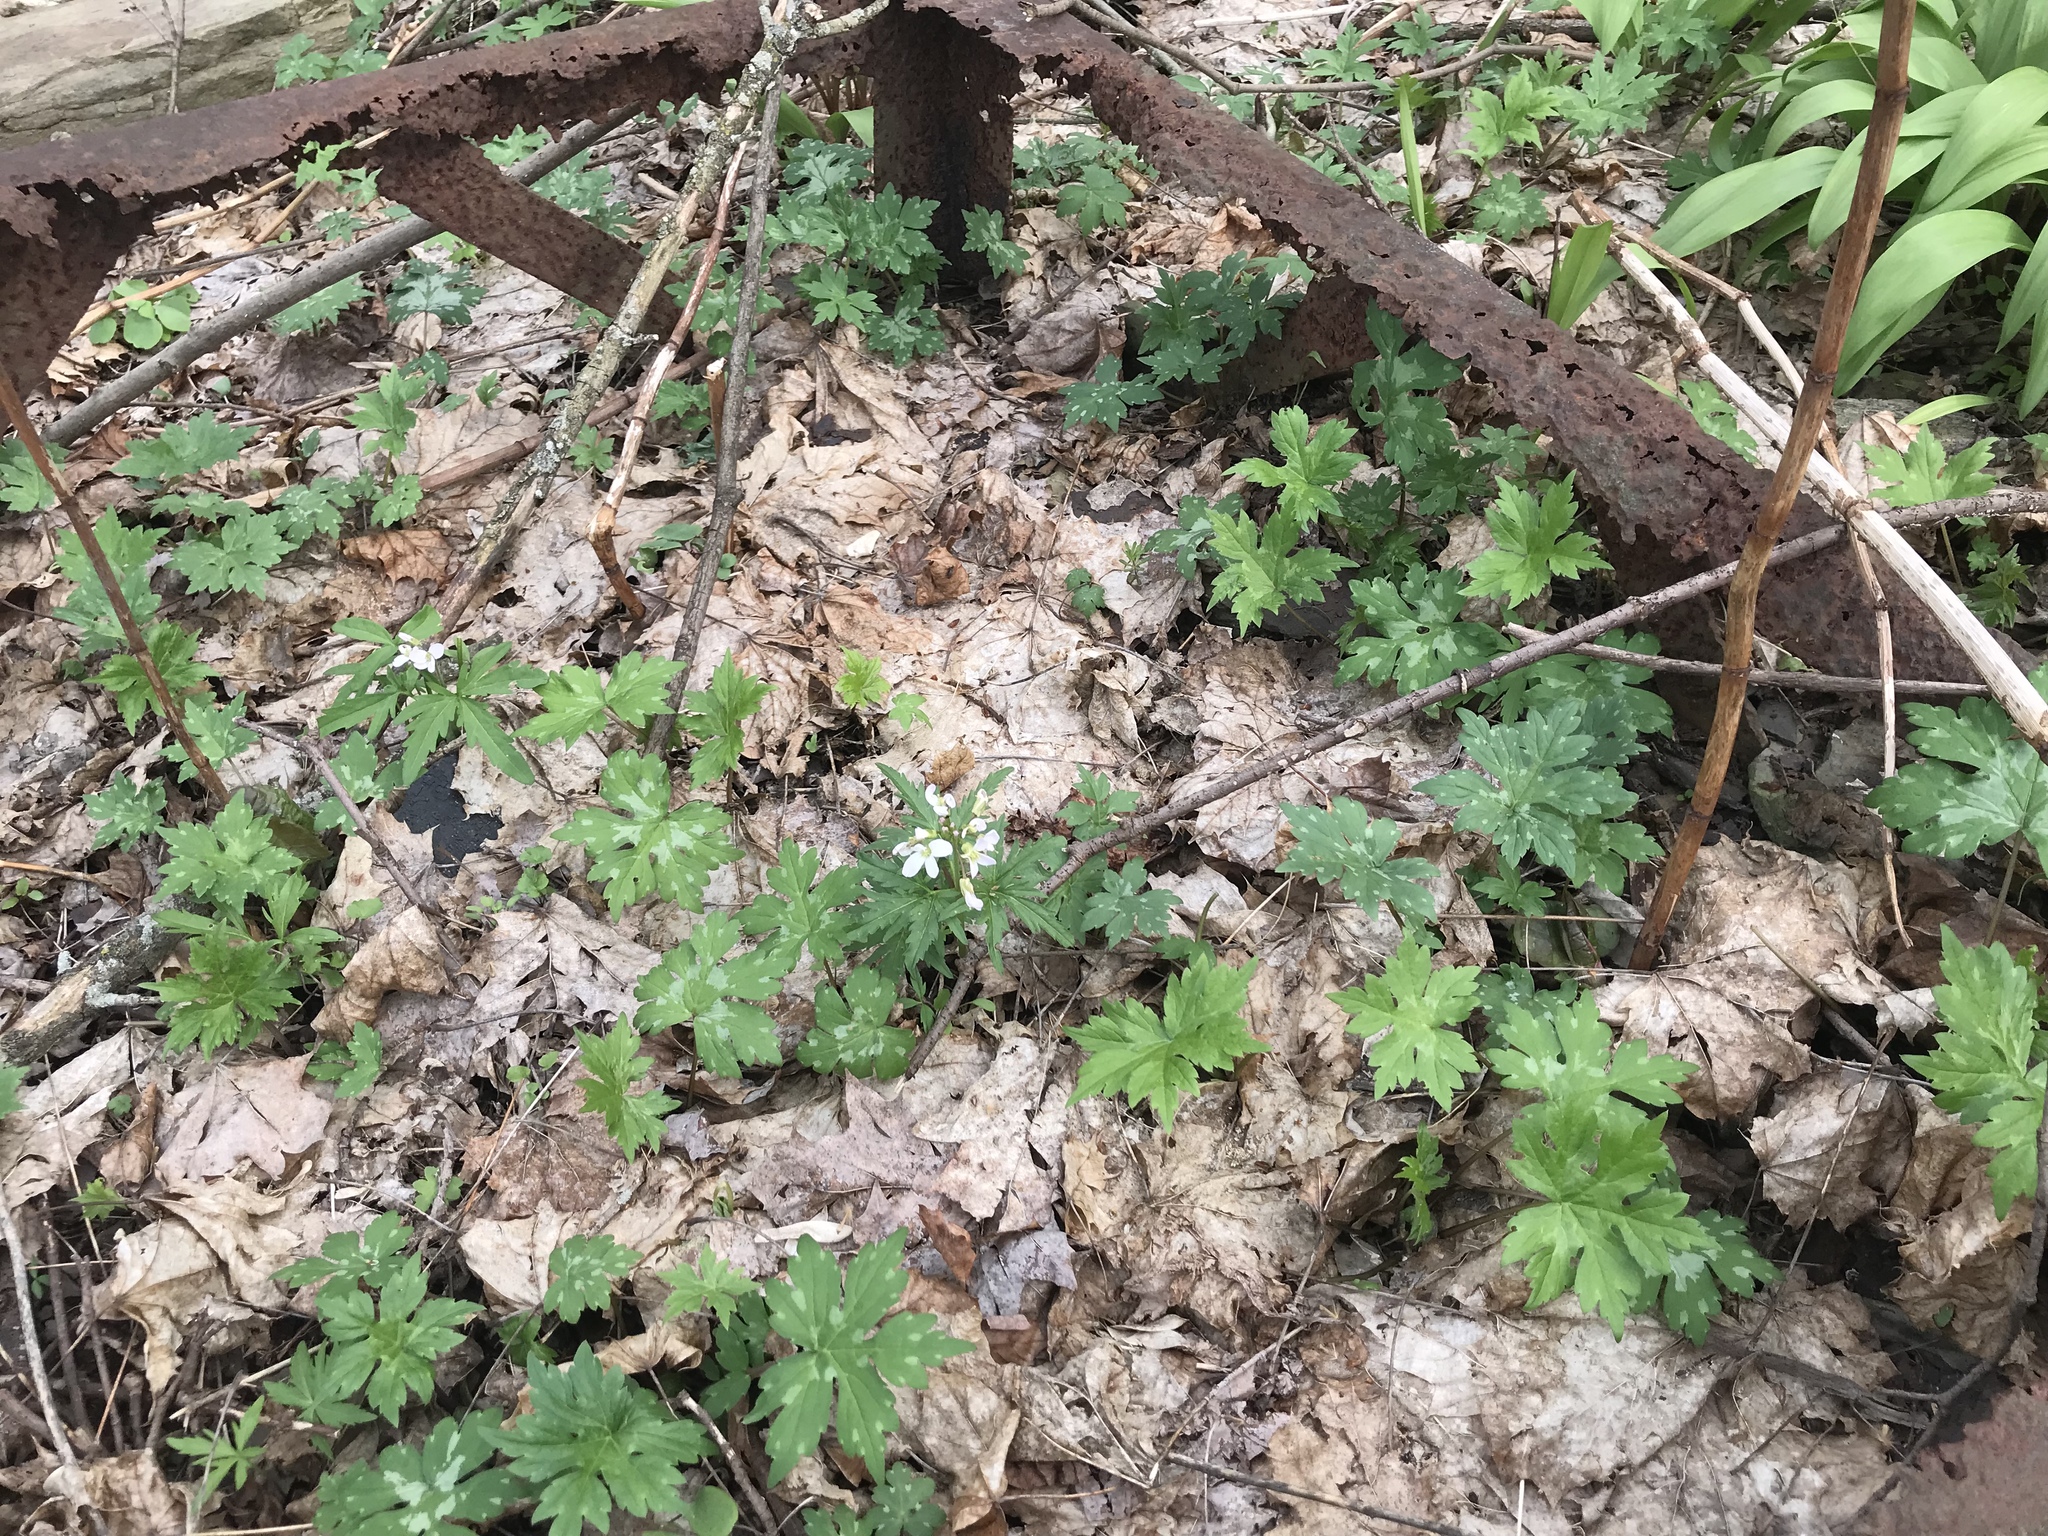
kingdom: Plantae
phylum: Tracheophyta
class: Magnoliopsida
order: Brassicales
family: Brassicaceae
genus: Cardamine
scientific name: Cardamine concatenata
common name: Cut-leaf toothcup
